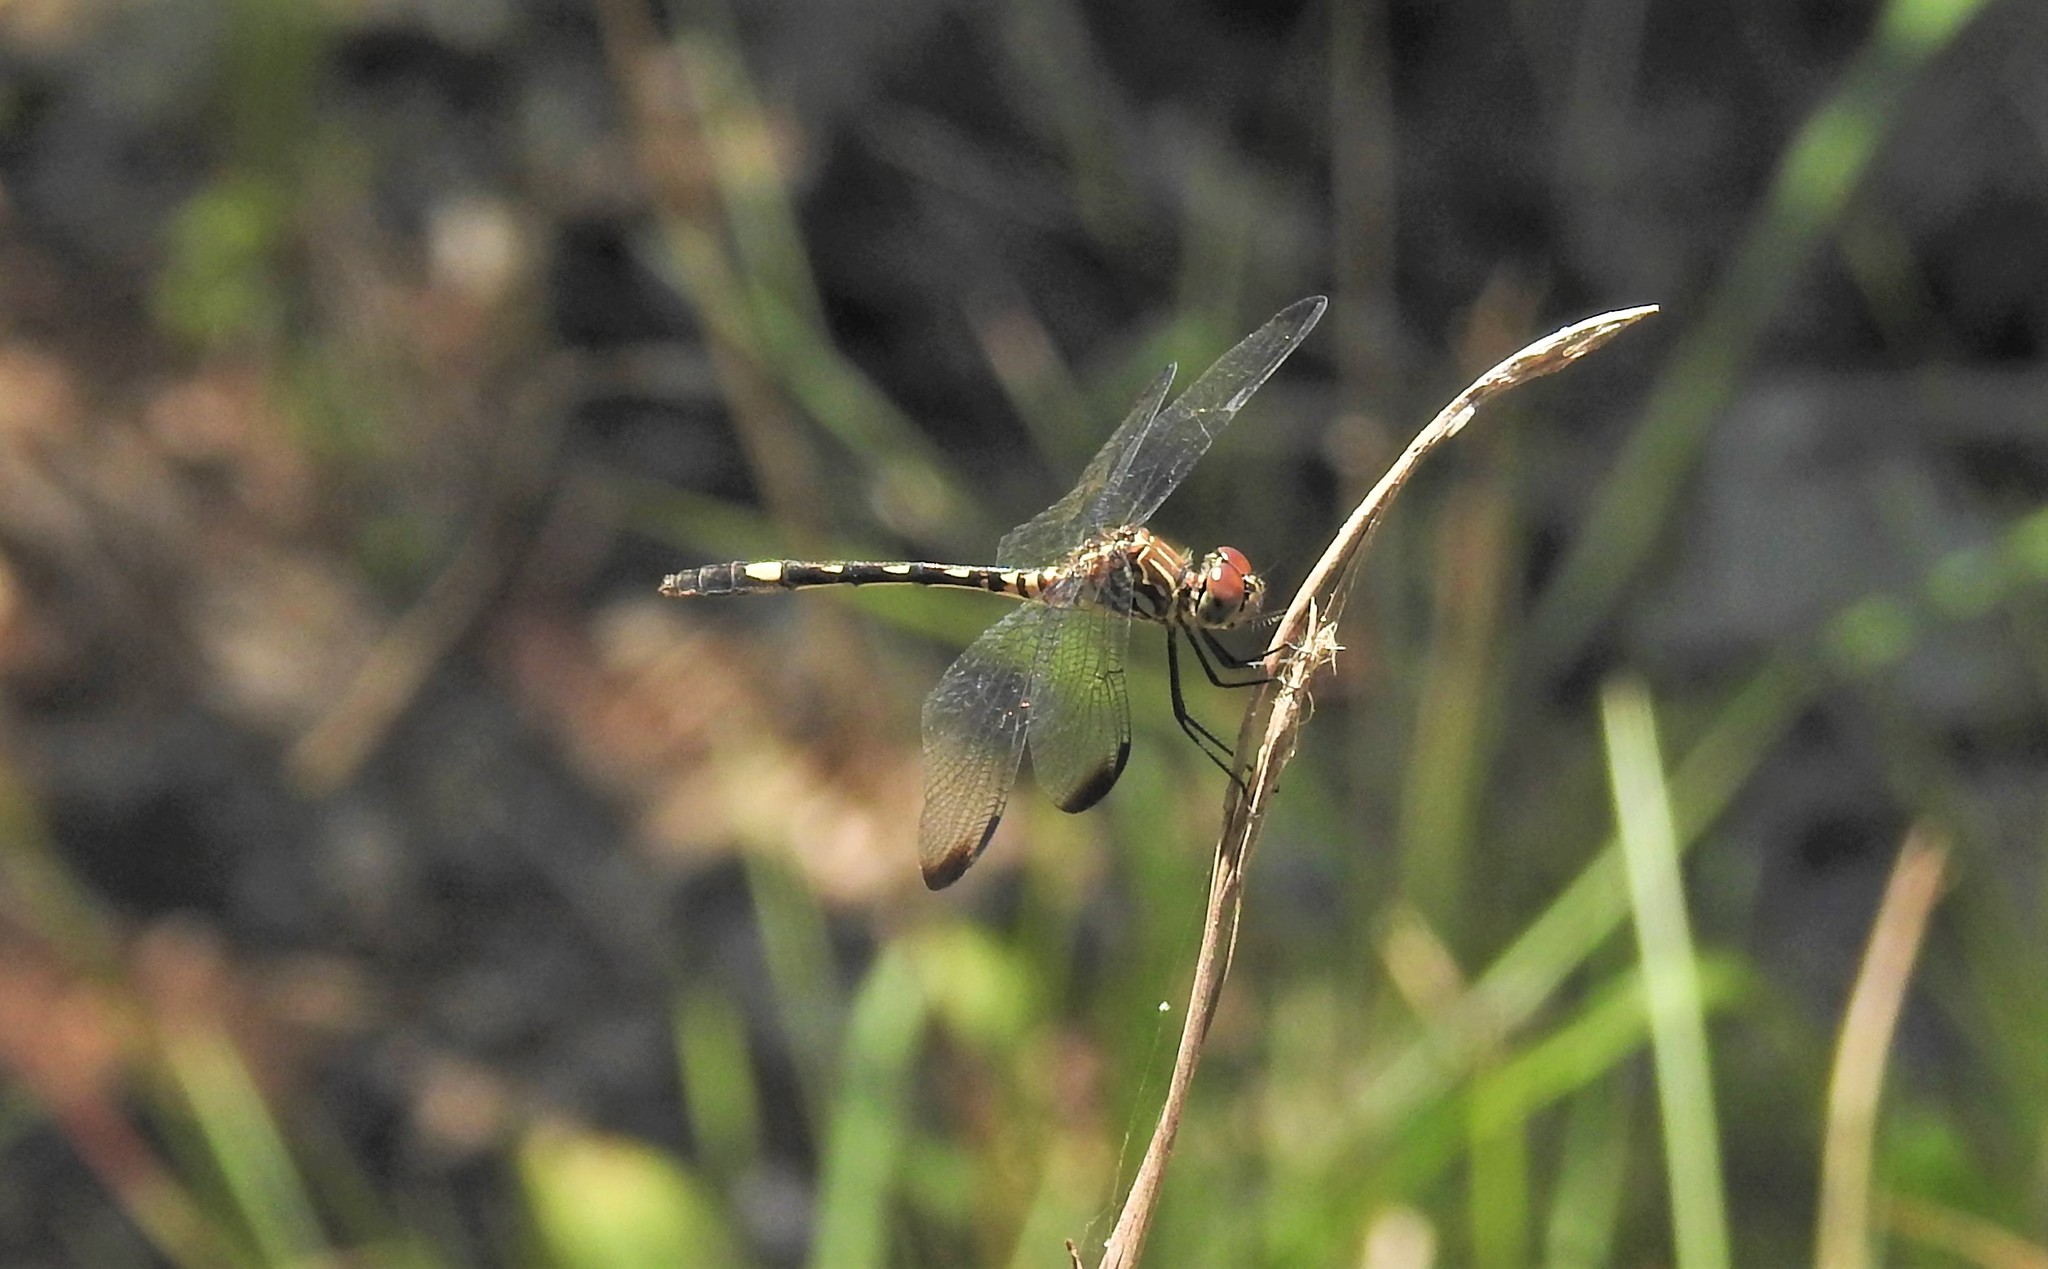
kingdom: Animalia
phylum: Arthropoda
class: Insecta
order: Odonata
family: Libellulidae
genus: Dythemis
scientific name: Dythemis velox
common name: Swift setwing
